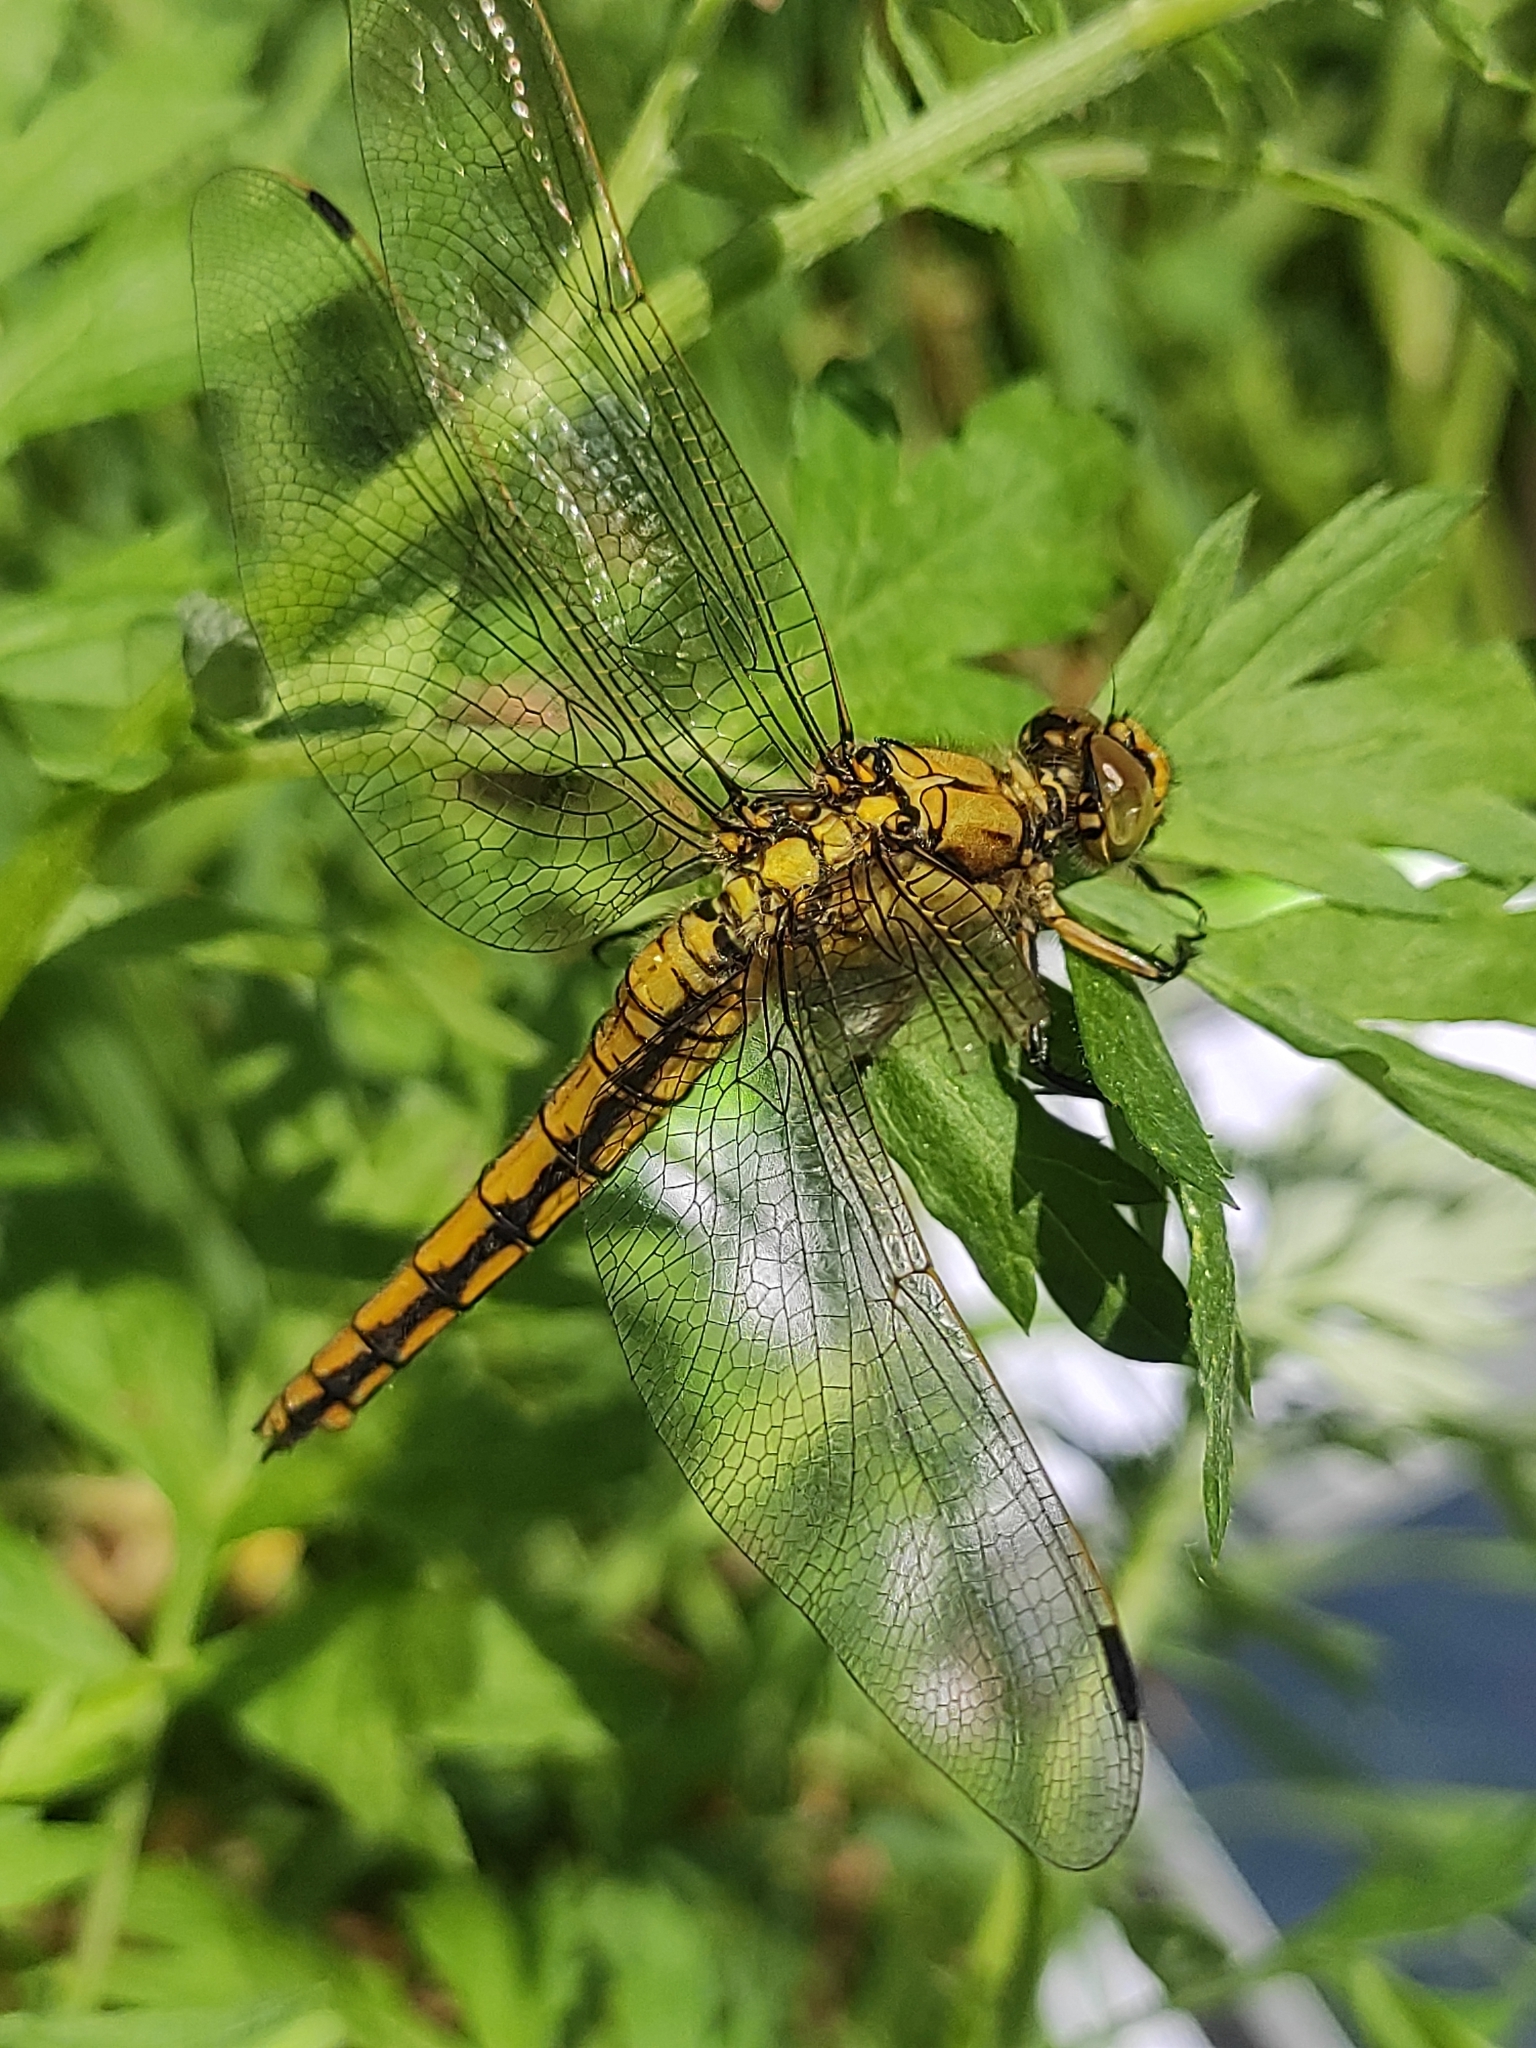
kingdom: Animalia
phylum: Arthropoda
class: Insecta
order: Odonata
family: Libellulidae
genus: Orthetrum
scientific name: Orthetrum cancellatum
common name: Black-tailed skimmer
